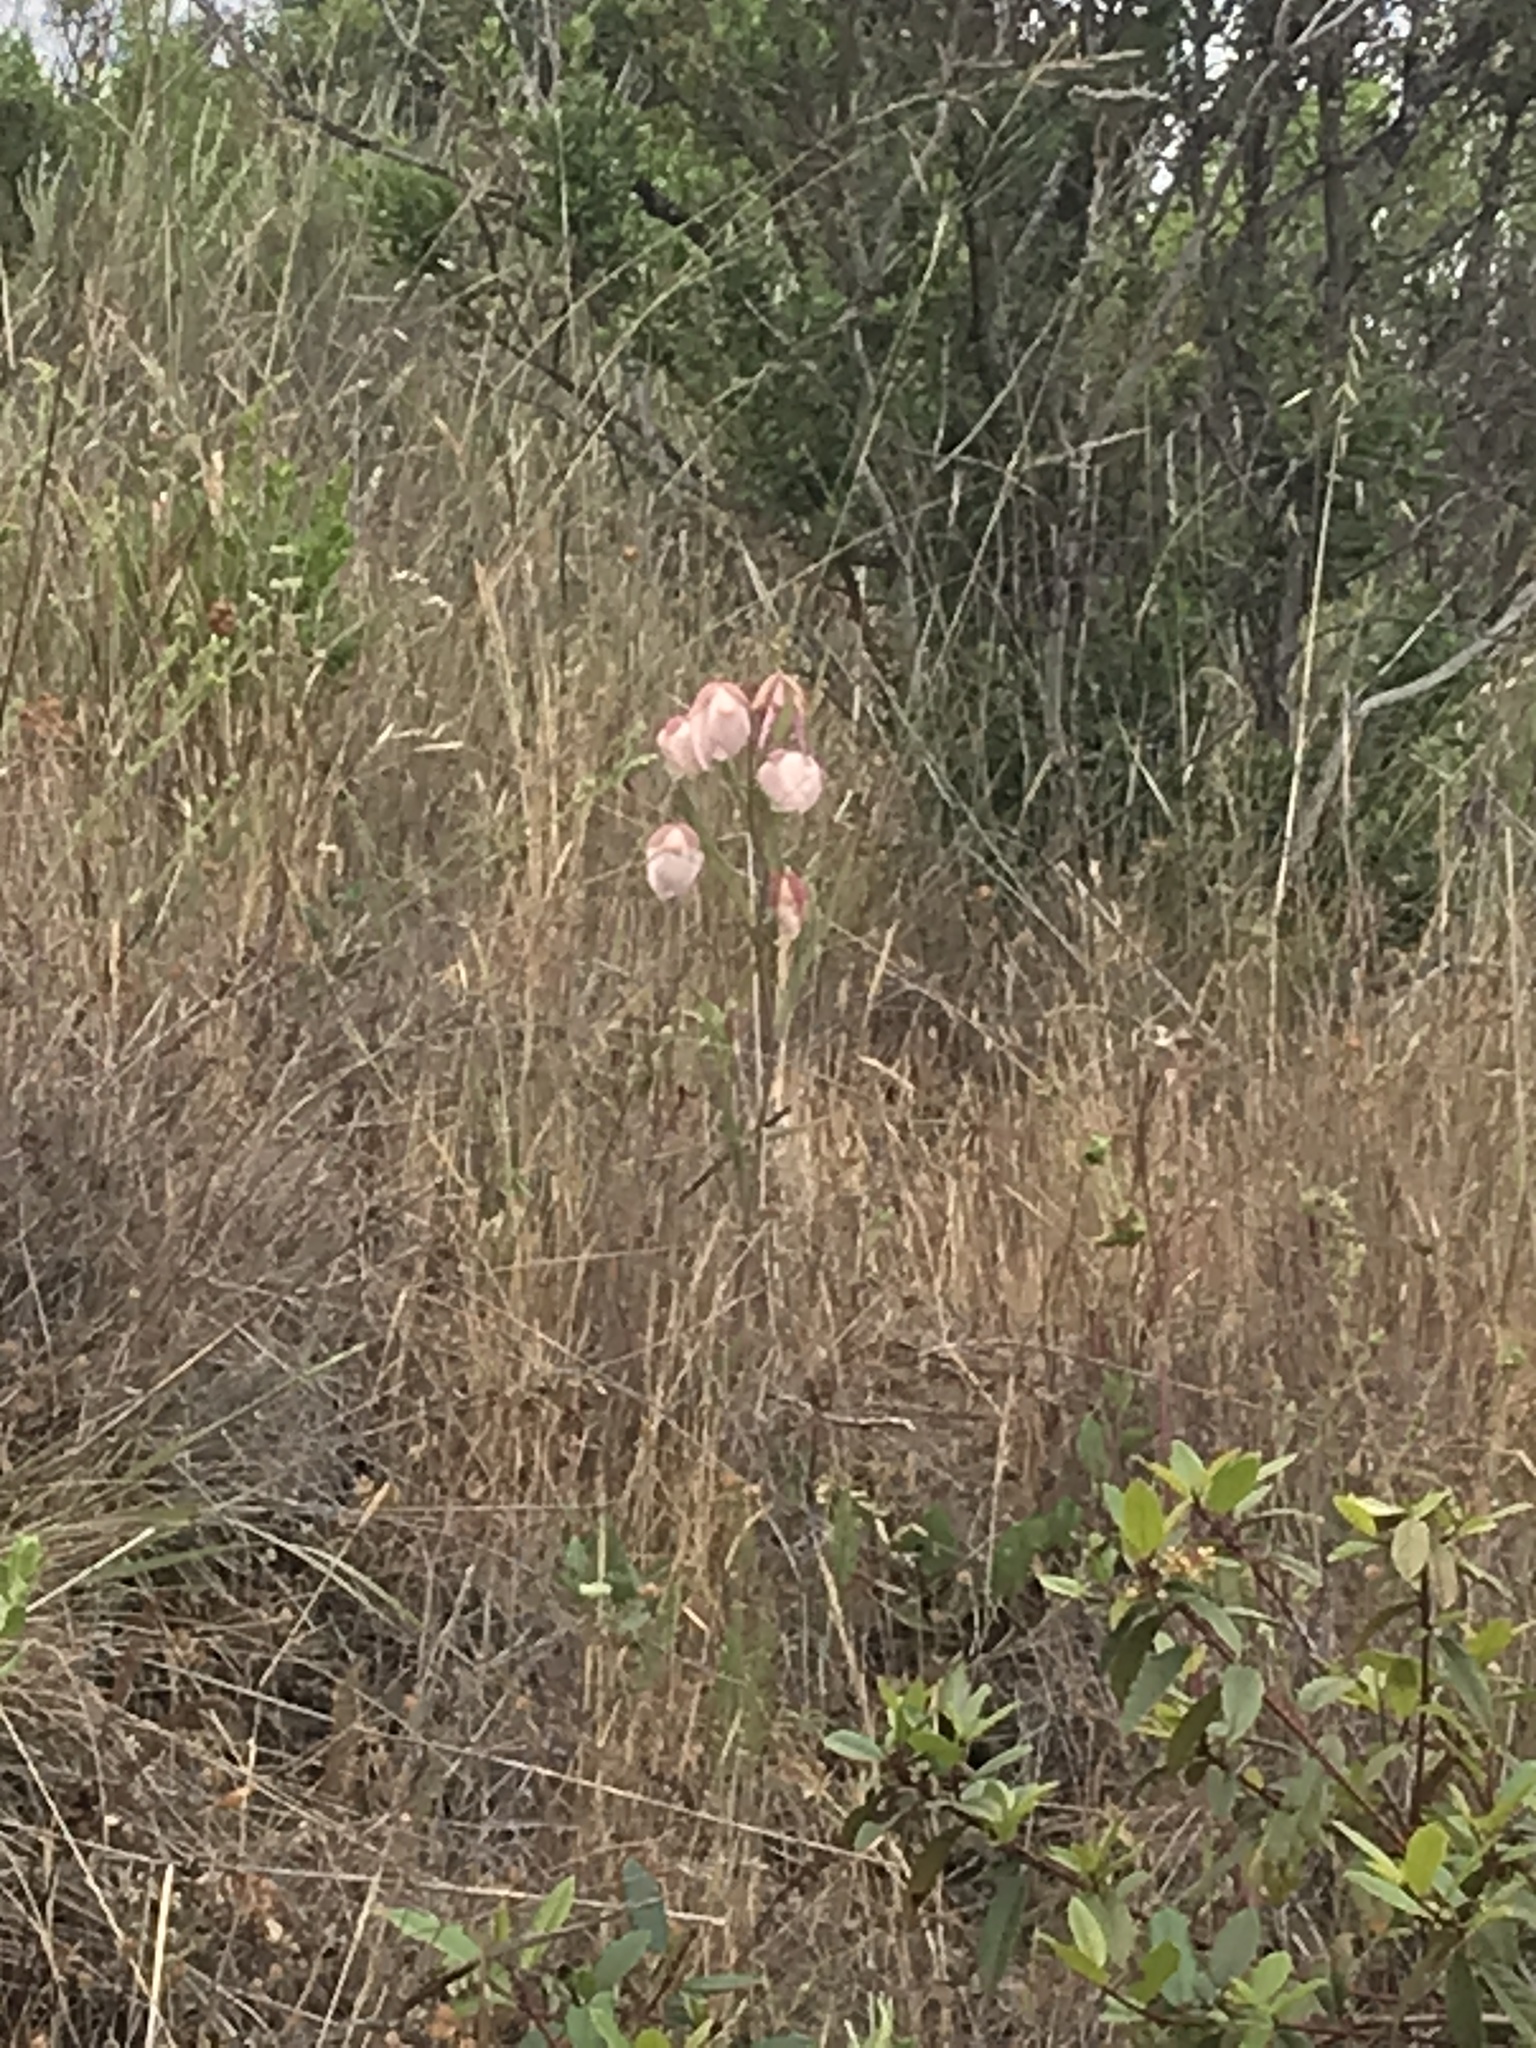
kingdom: Plantae
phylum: Tracheophyta
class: Liliopsida
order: Liliales
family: Liliaceae
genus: Calochortus
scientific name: Calochortus albus
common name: Fairy-lantern
